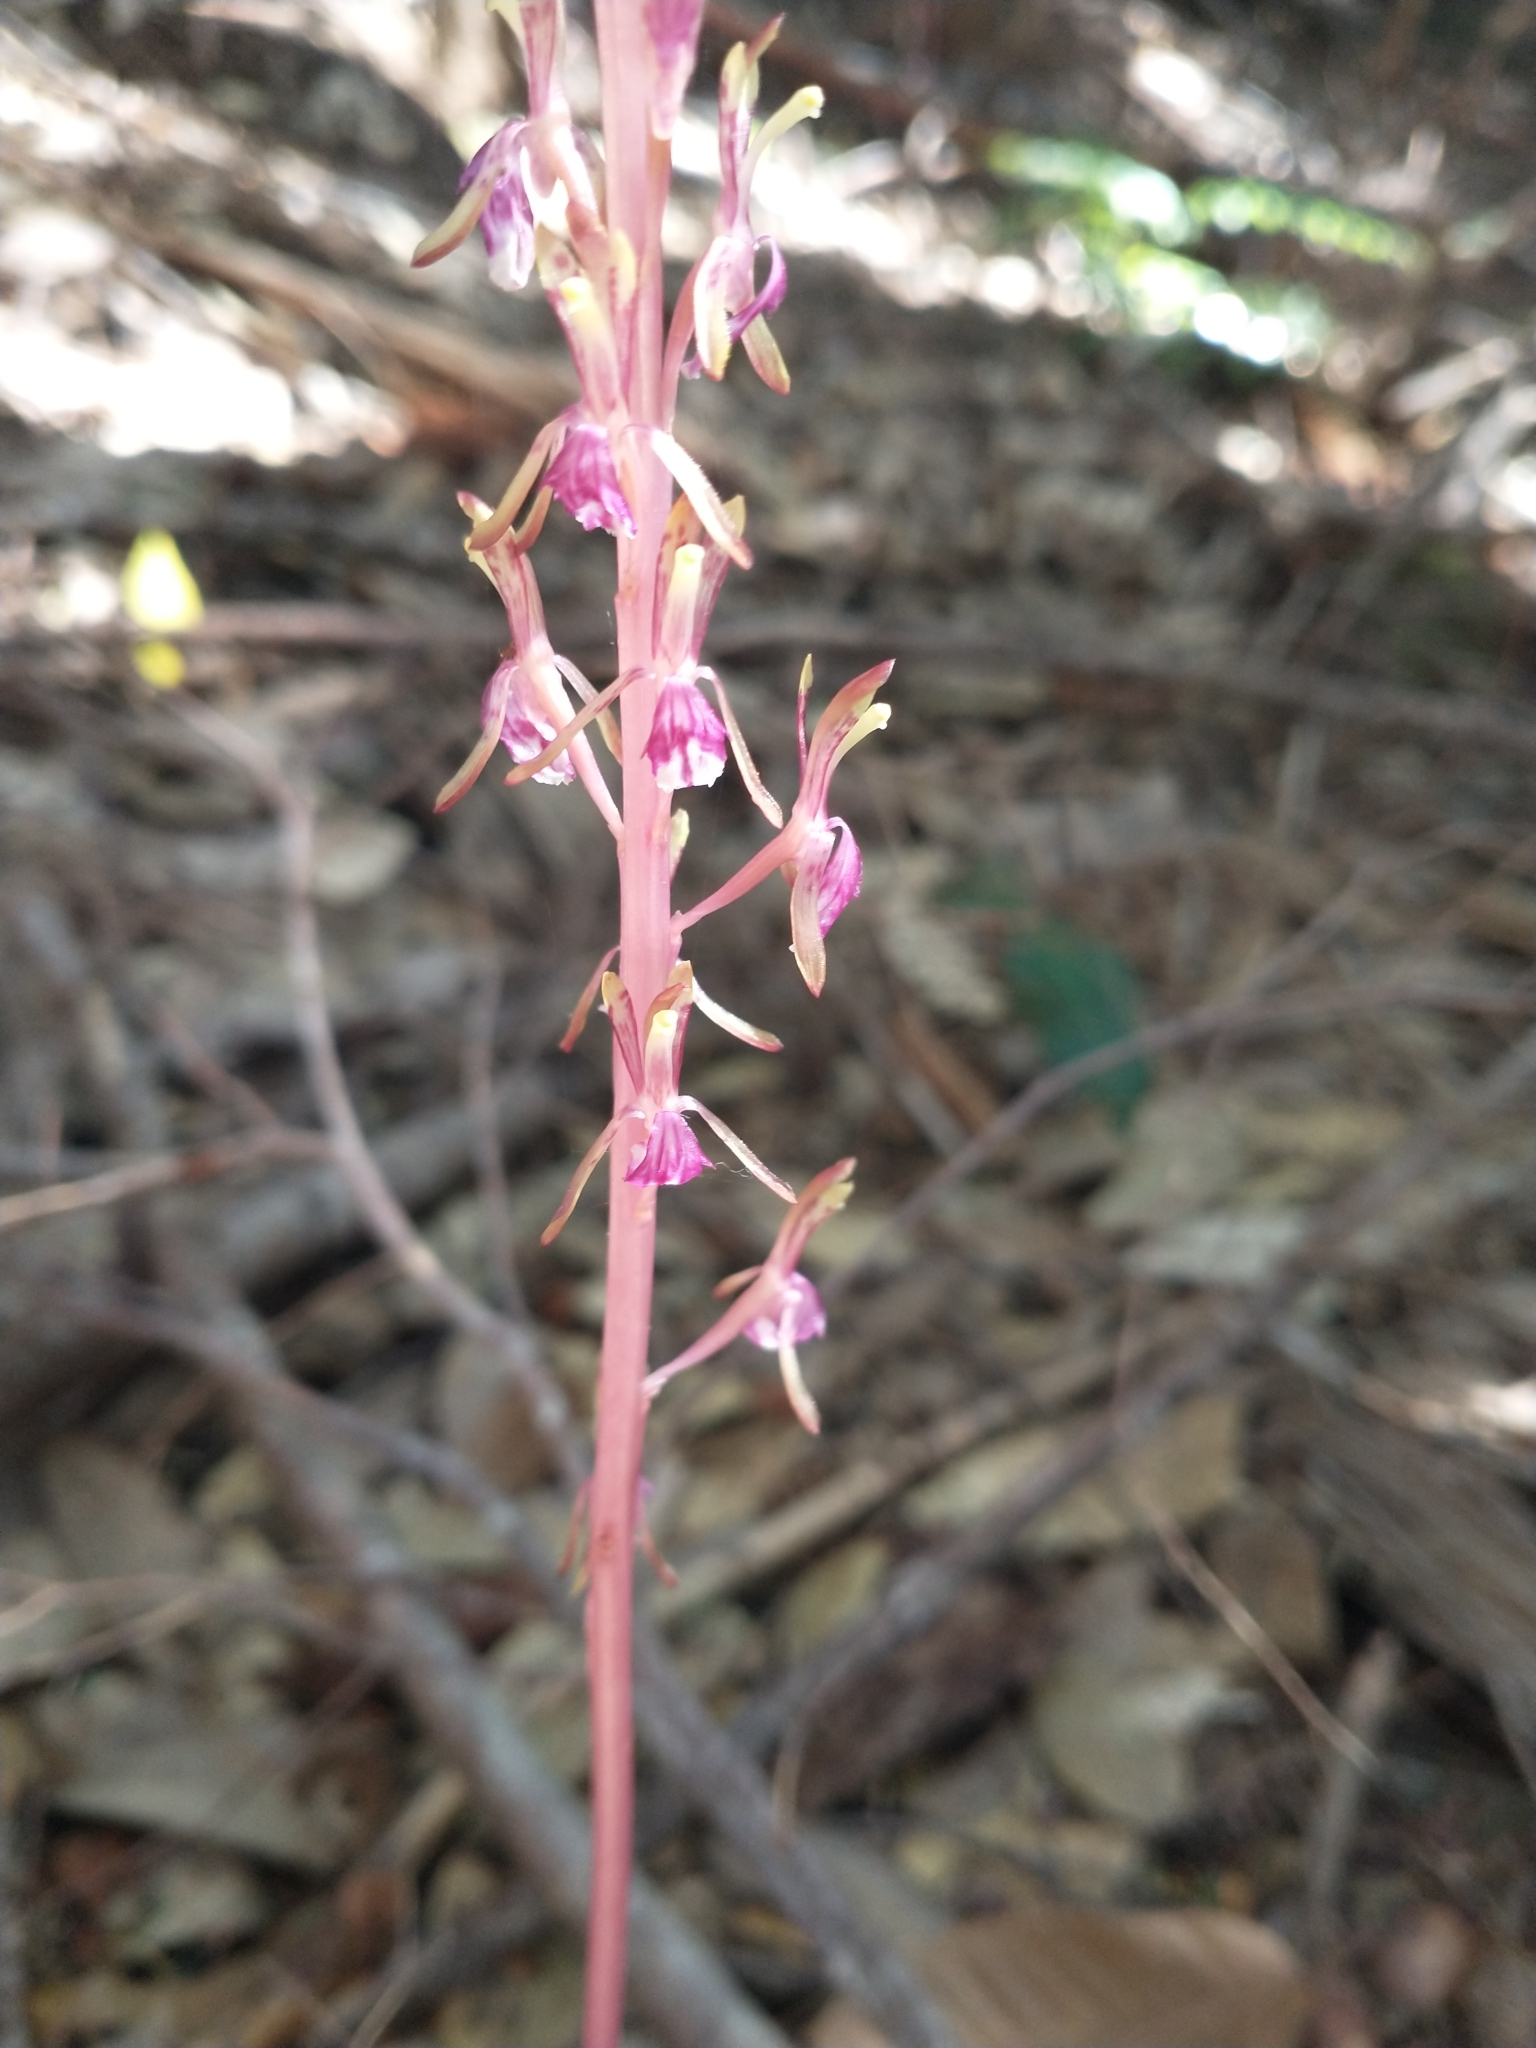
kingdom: Plantae
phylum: Tracheophyta
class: Liliopsida
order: Asparagales
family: Orchidaceae
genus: Corallorhiza
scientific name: Corallorhiza mertensiana
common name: Pacific coralroot
